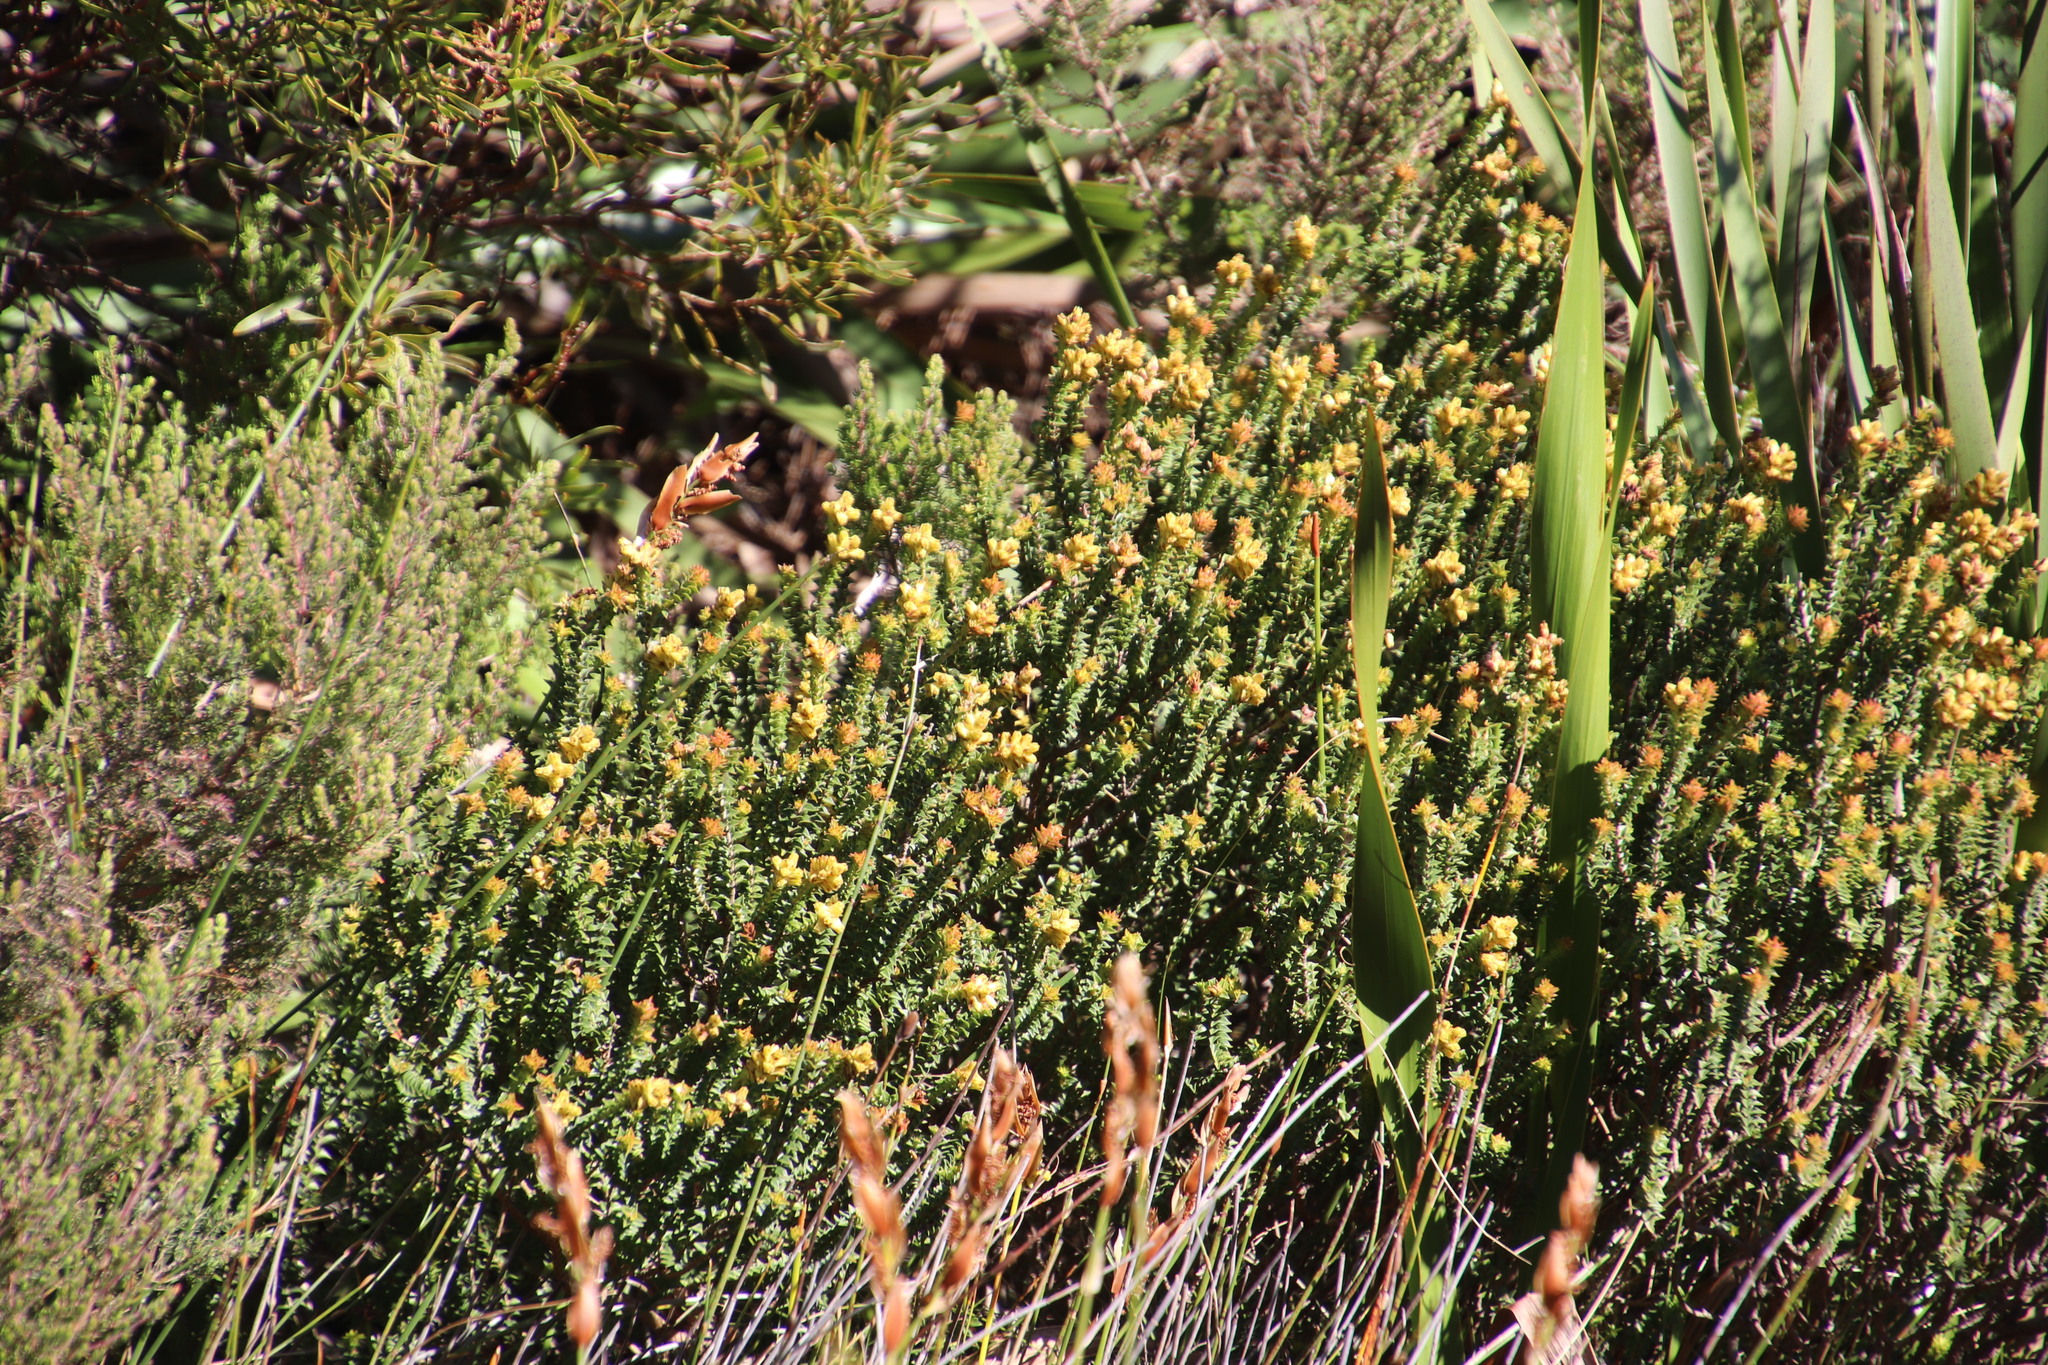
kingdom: Plantae
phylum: Tracheophyta
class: Magnoliopsida
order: Myrtales
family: Penaeaceae
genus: Penaea
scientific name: Penaea mucronata
